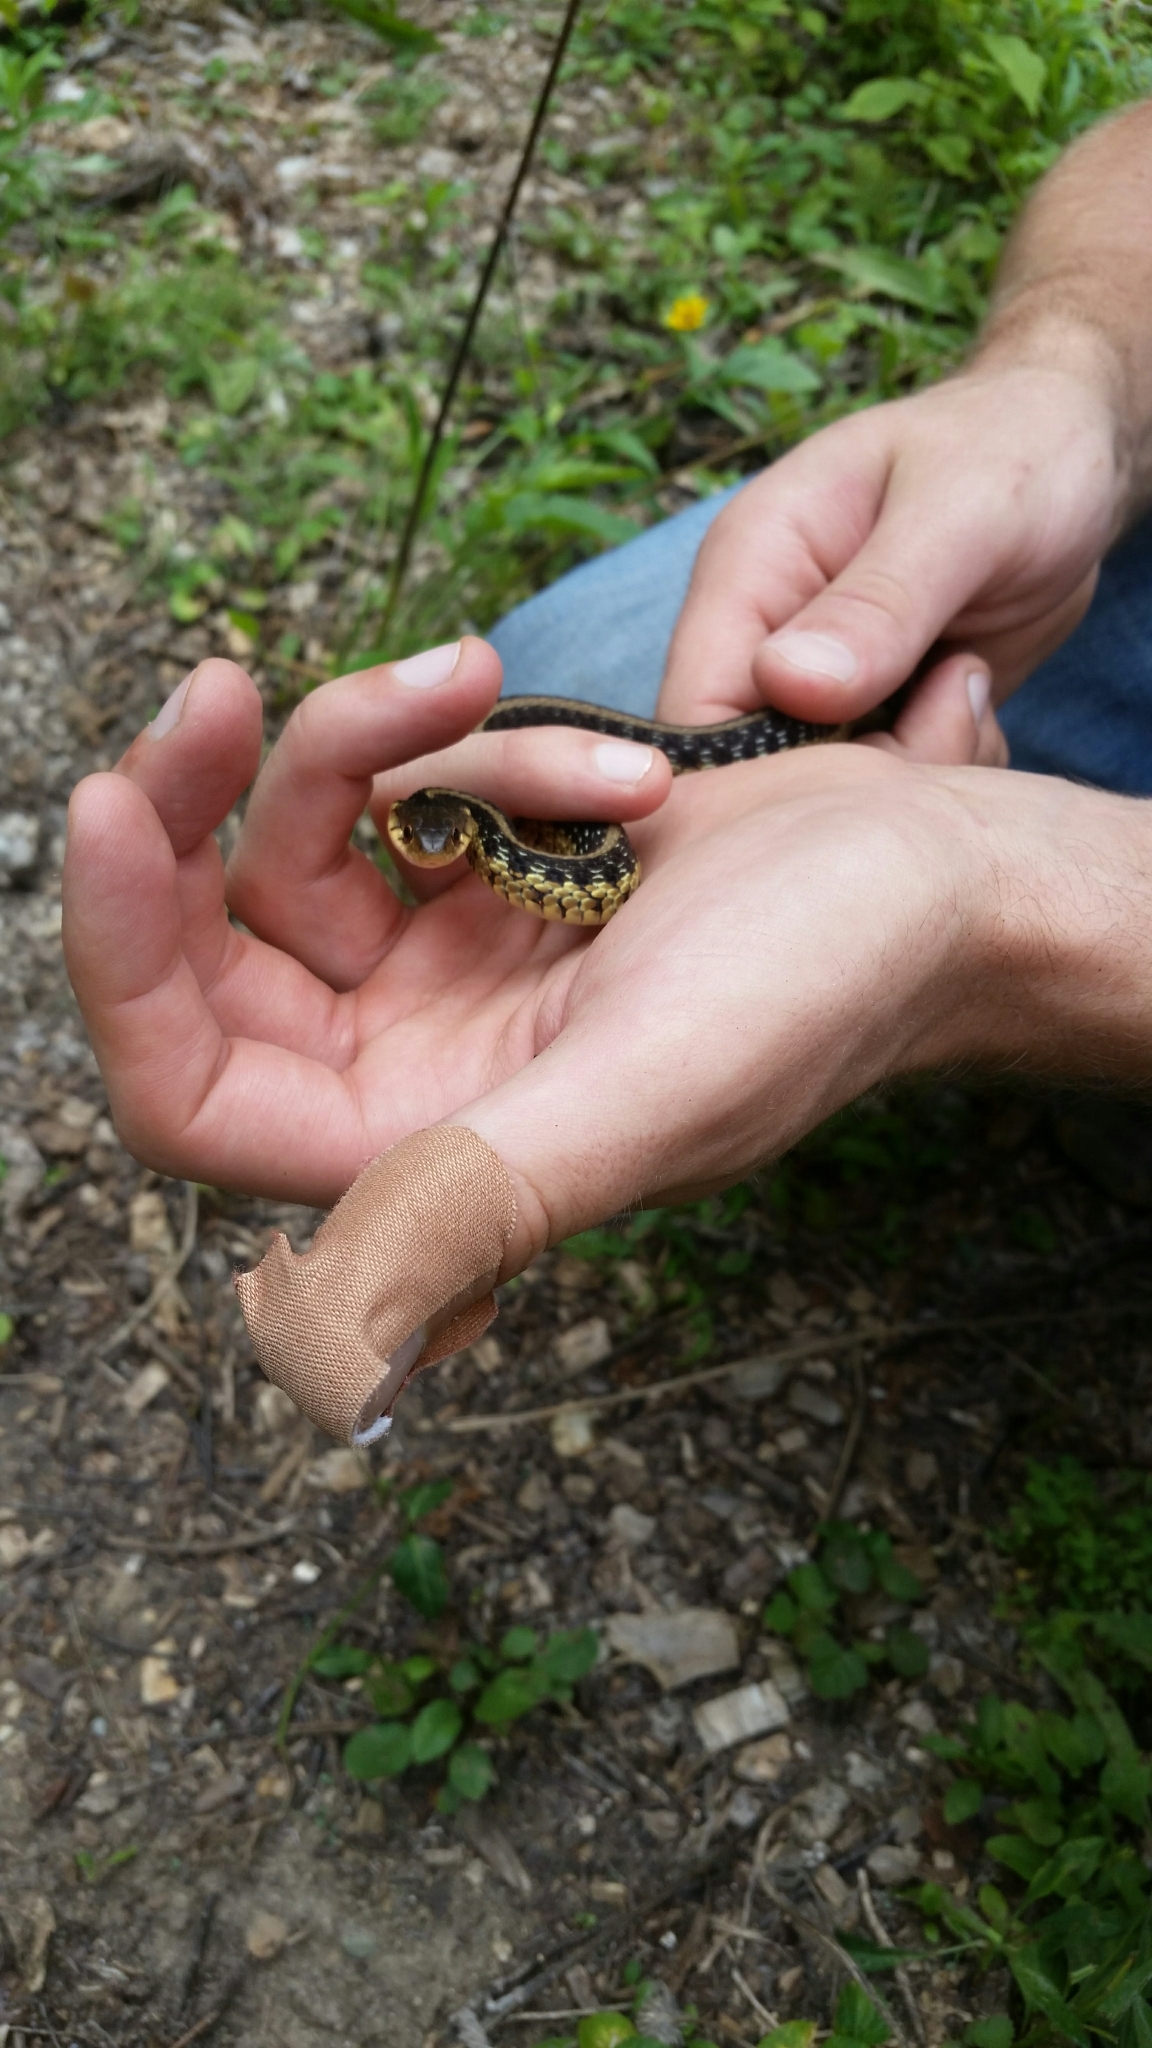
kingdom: Animalia
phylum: Chordata
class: Squamata
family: Colubridae
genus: Thamnophis
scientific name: Thamnophis sirtalis
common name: Common garter snake
